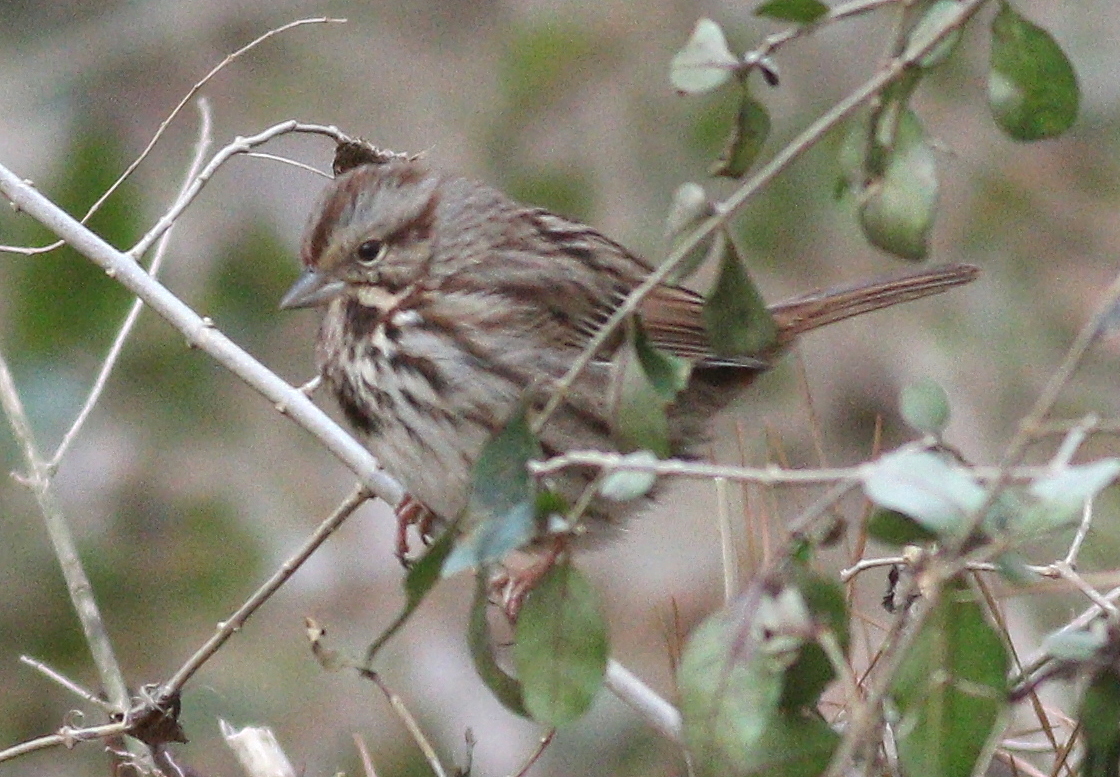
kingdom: Animalia
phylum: Chordata
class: Aves
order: Passeriformes
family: Passerellidae
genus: Melospiza
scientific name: Melospiza melodia
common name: Song sparrow
